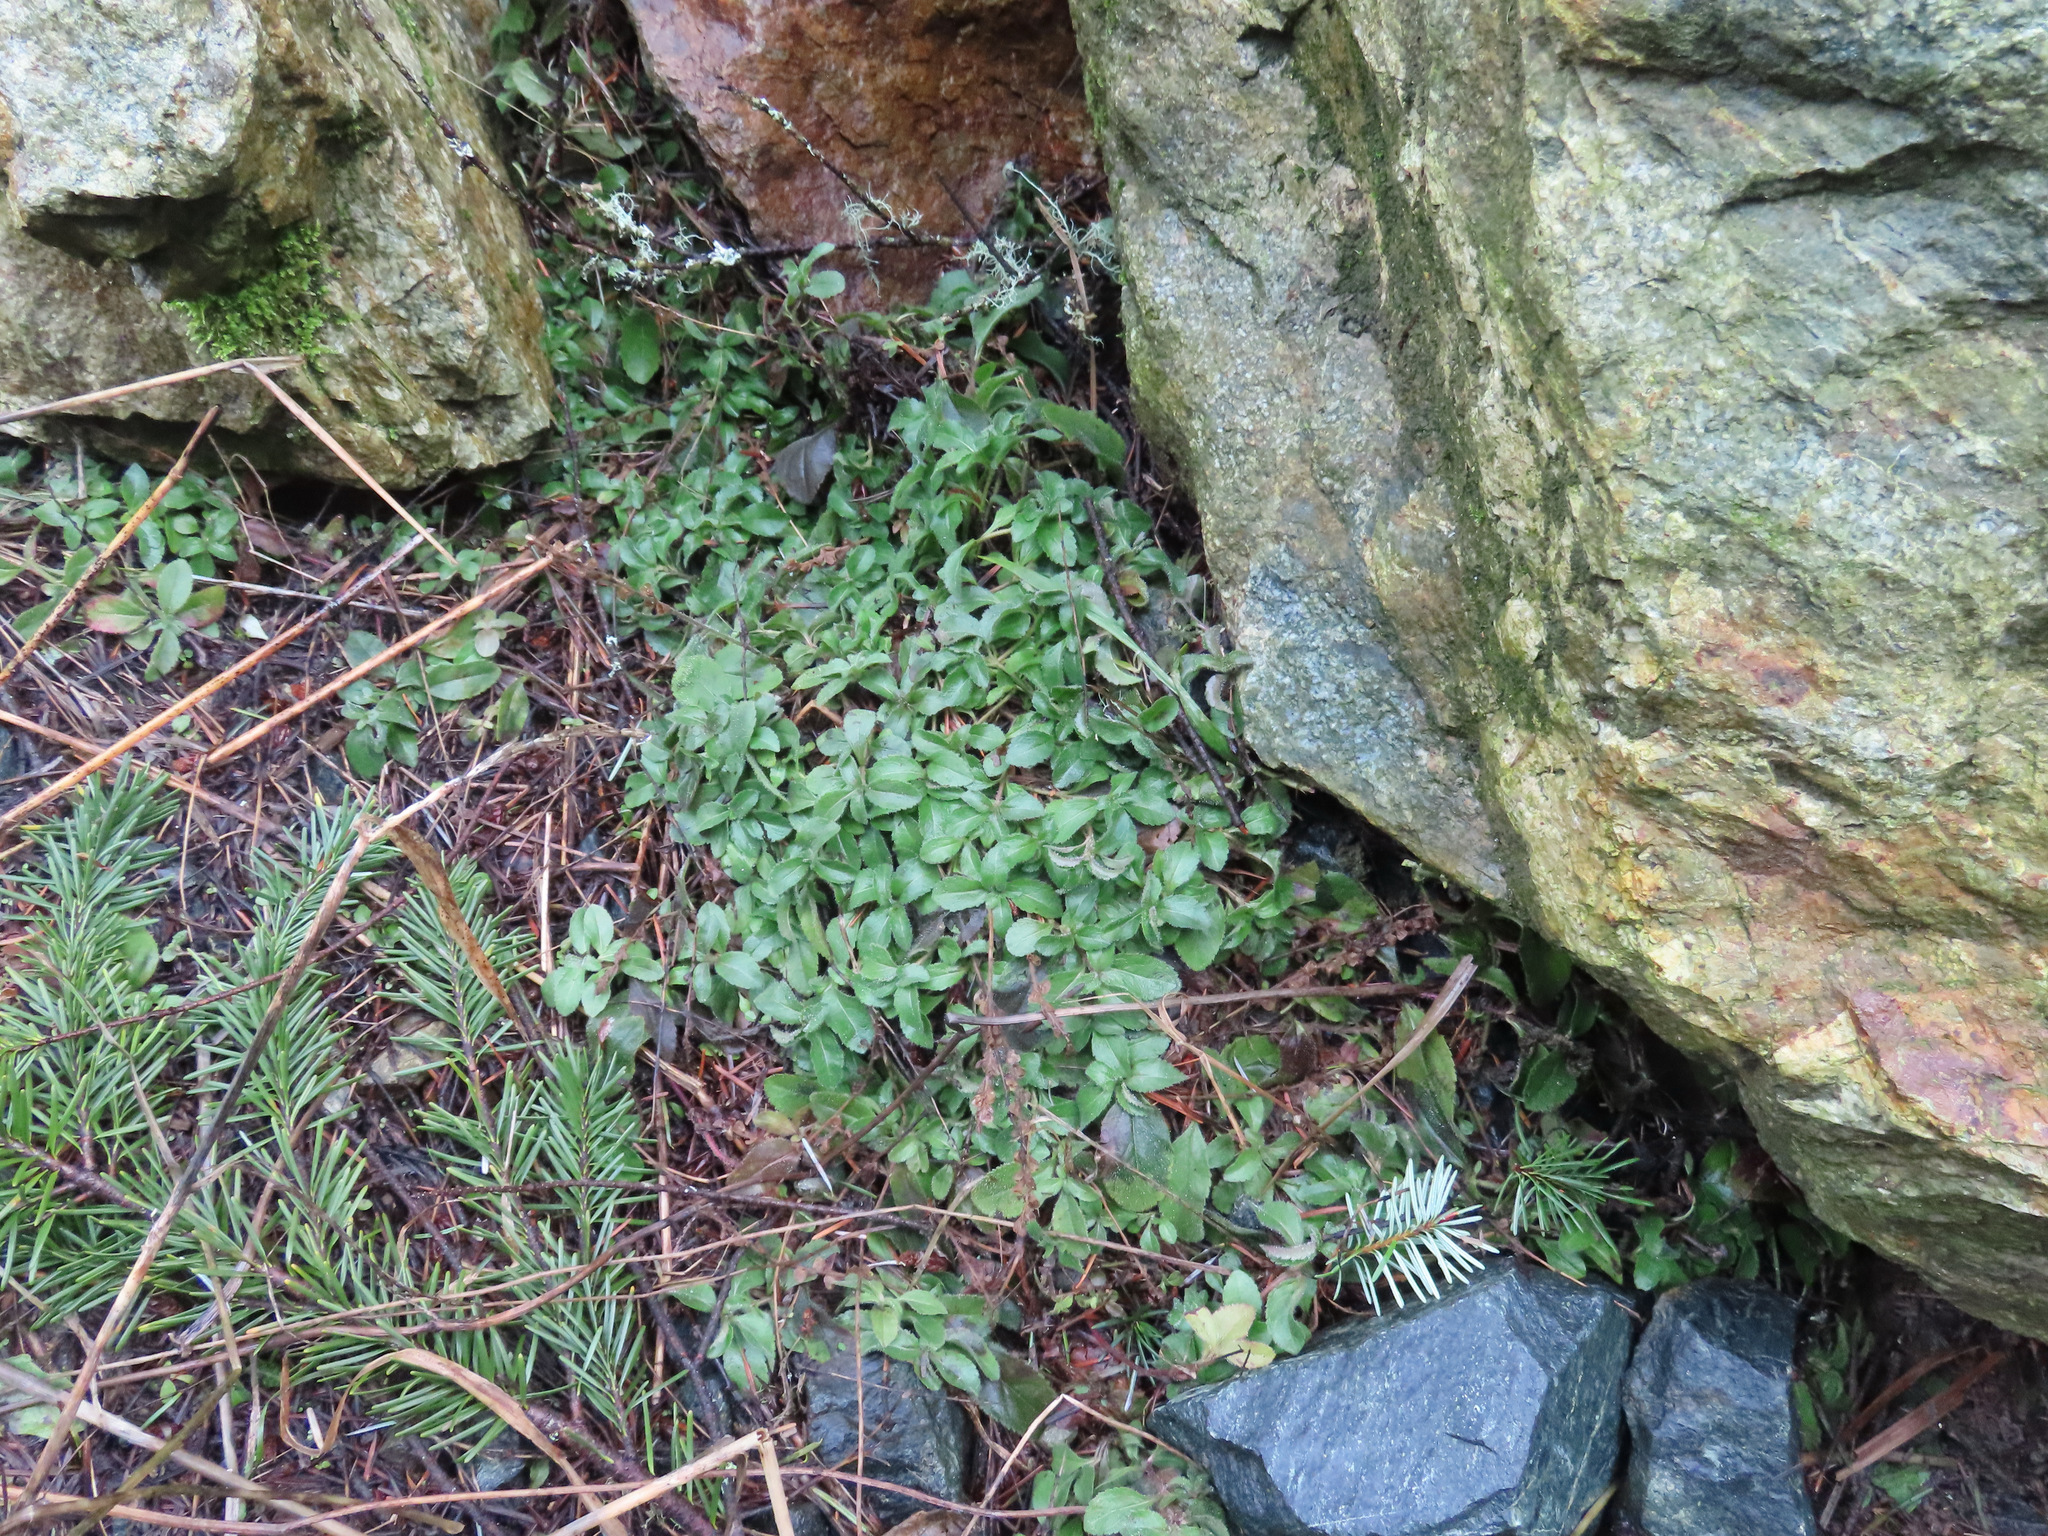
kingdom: Plantae
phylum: Tracheophyta
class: Magnoliopsida
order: Lamiales
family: Plantaginaceae
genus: Veronica
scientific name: Veronica officinalis
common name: Common speedwell
